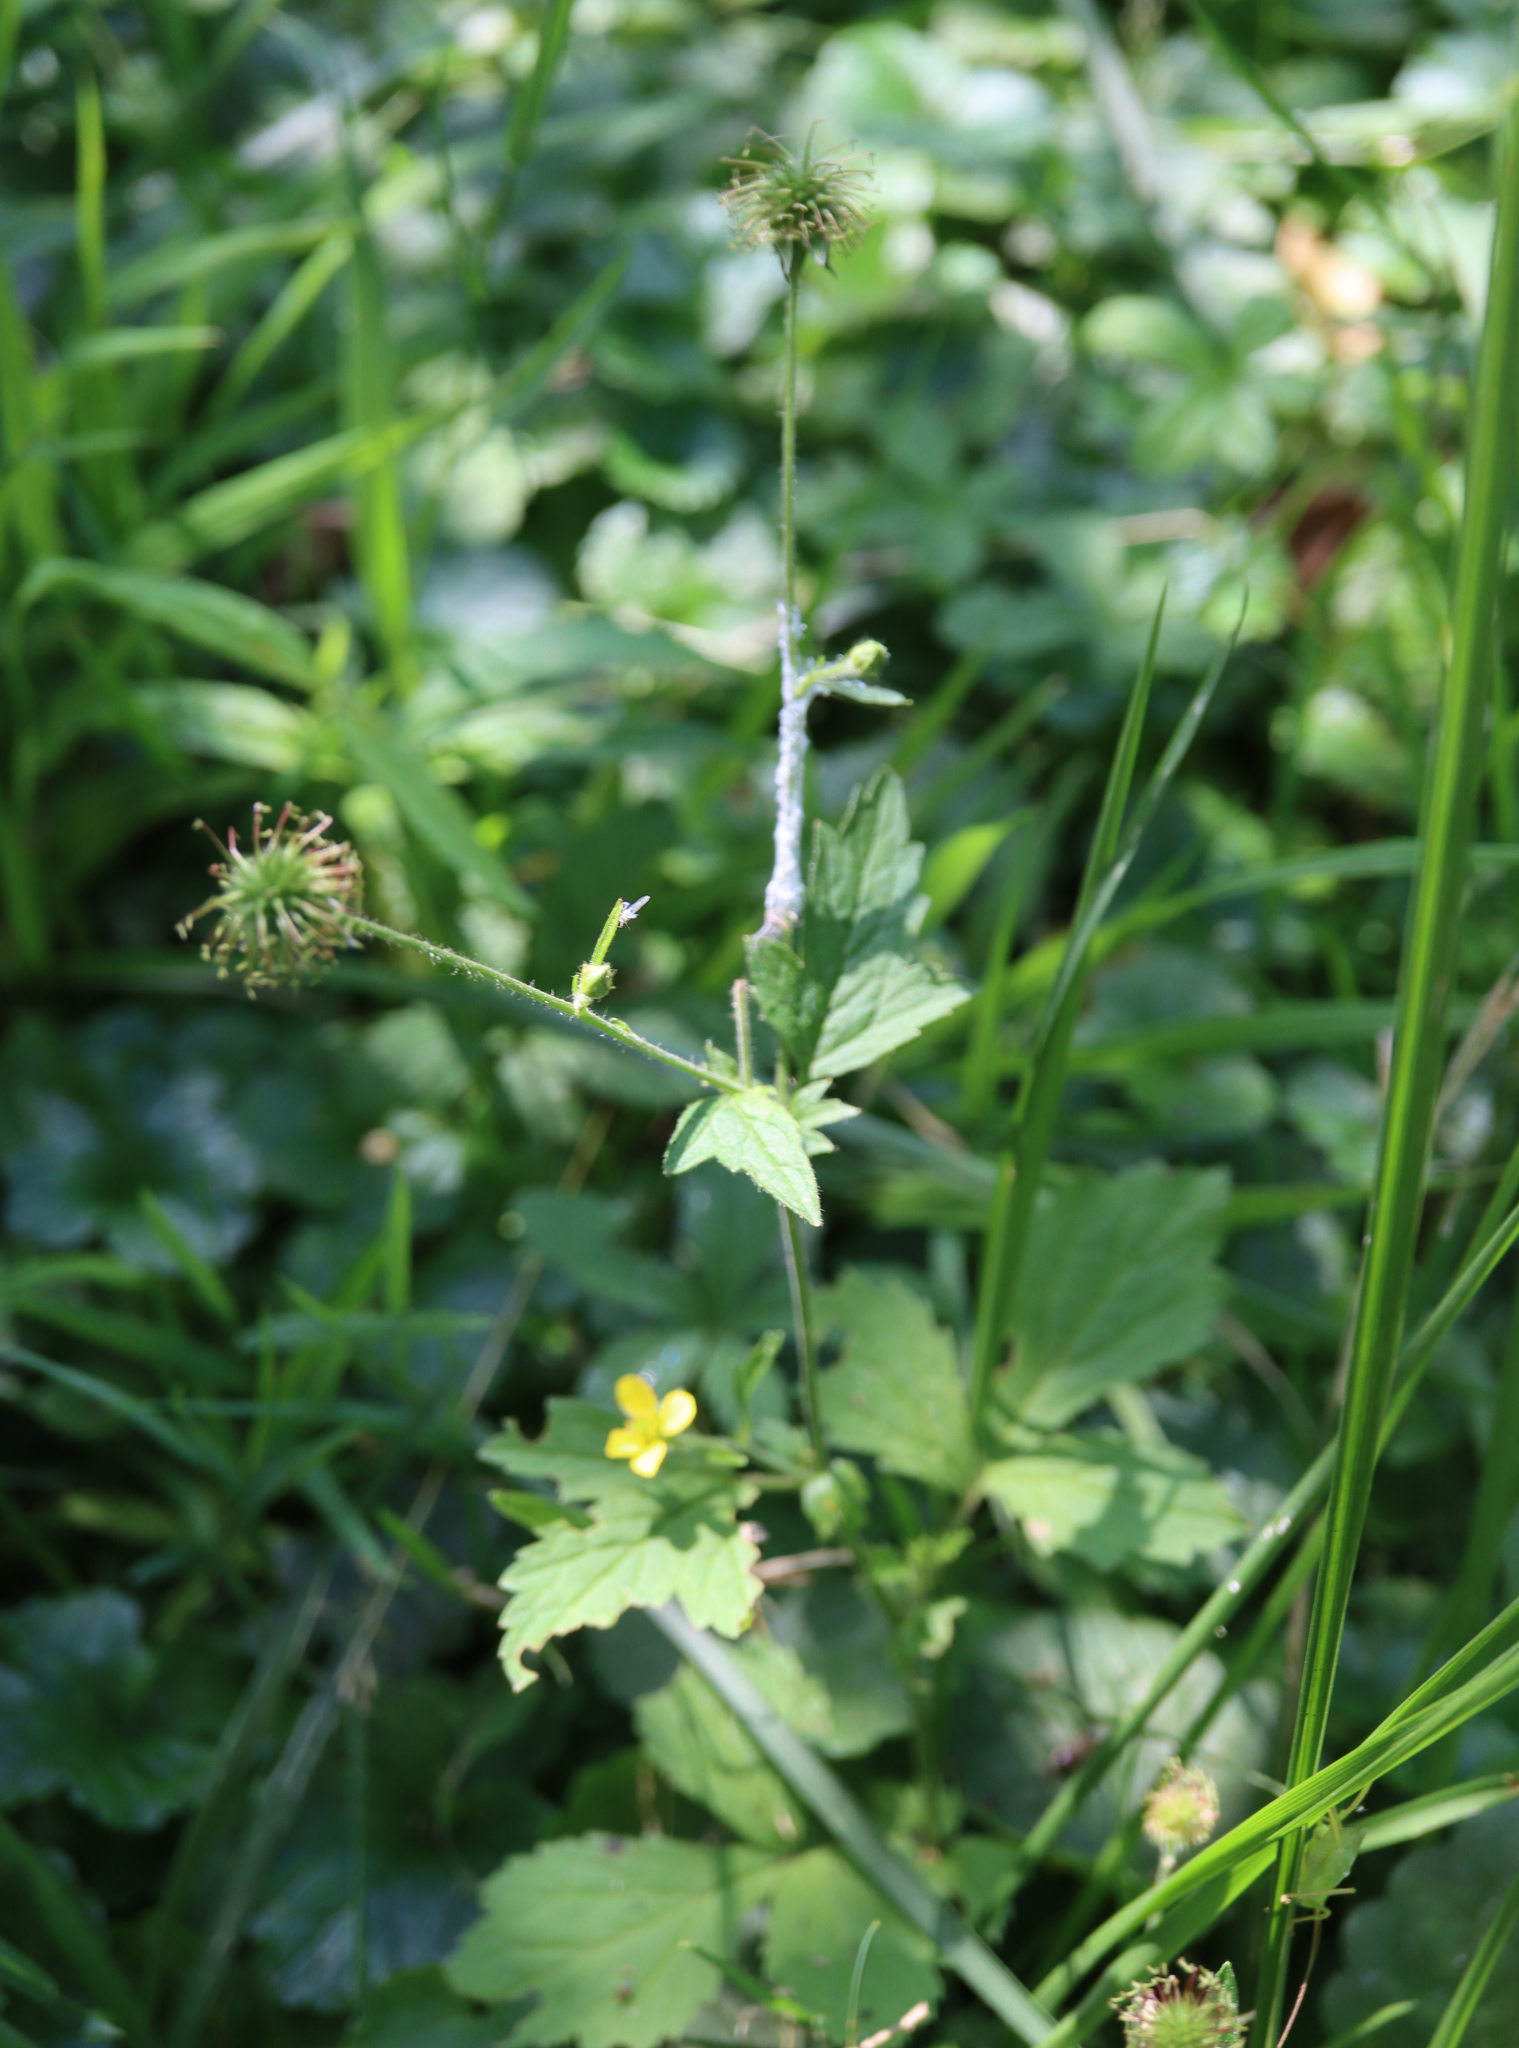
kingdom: Plantae
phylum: Tracheophyta
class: Magnoliopsida
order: Rosales
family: Rosaceae
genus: Geum
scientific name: Geum urbanum
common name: Wood avens
